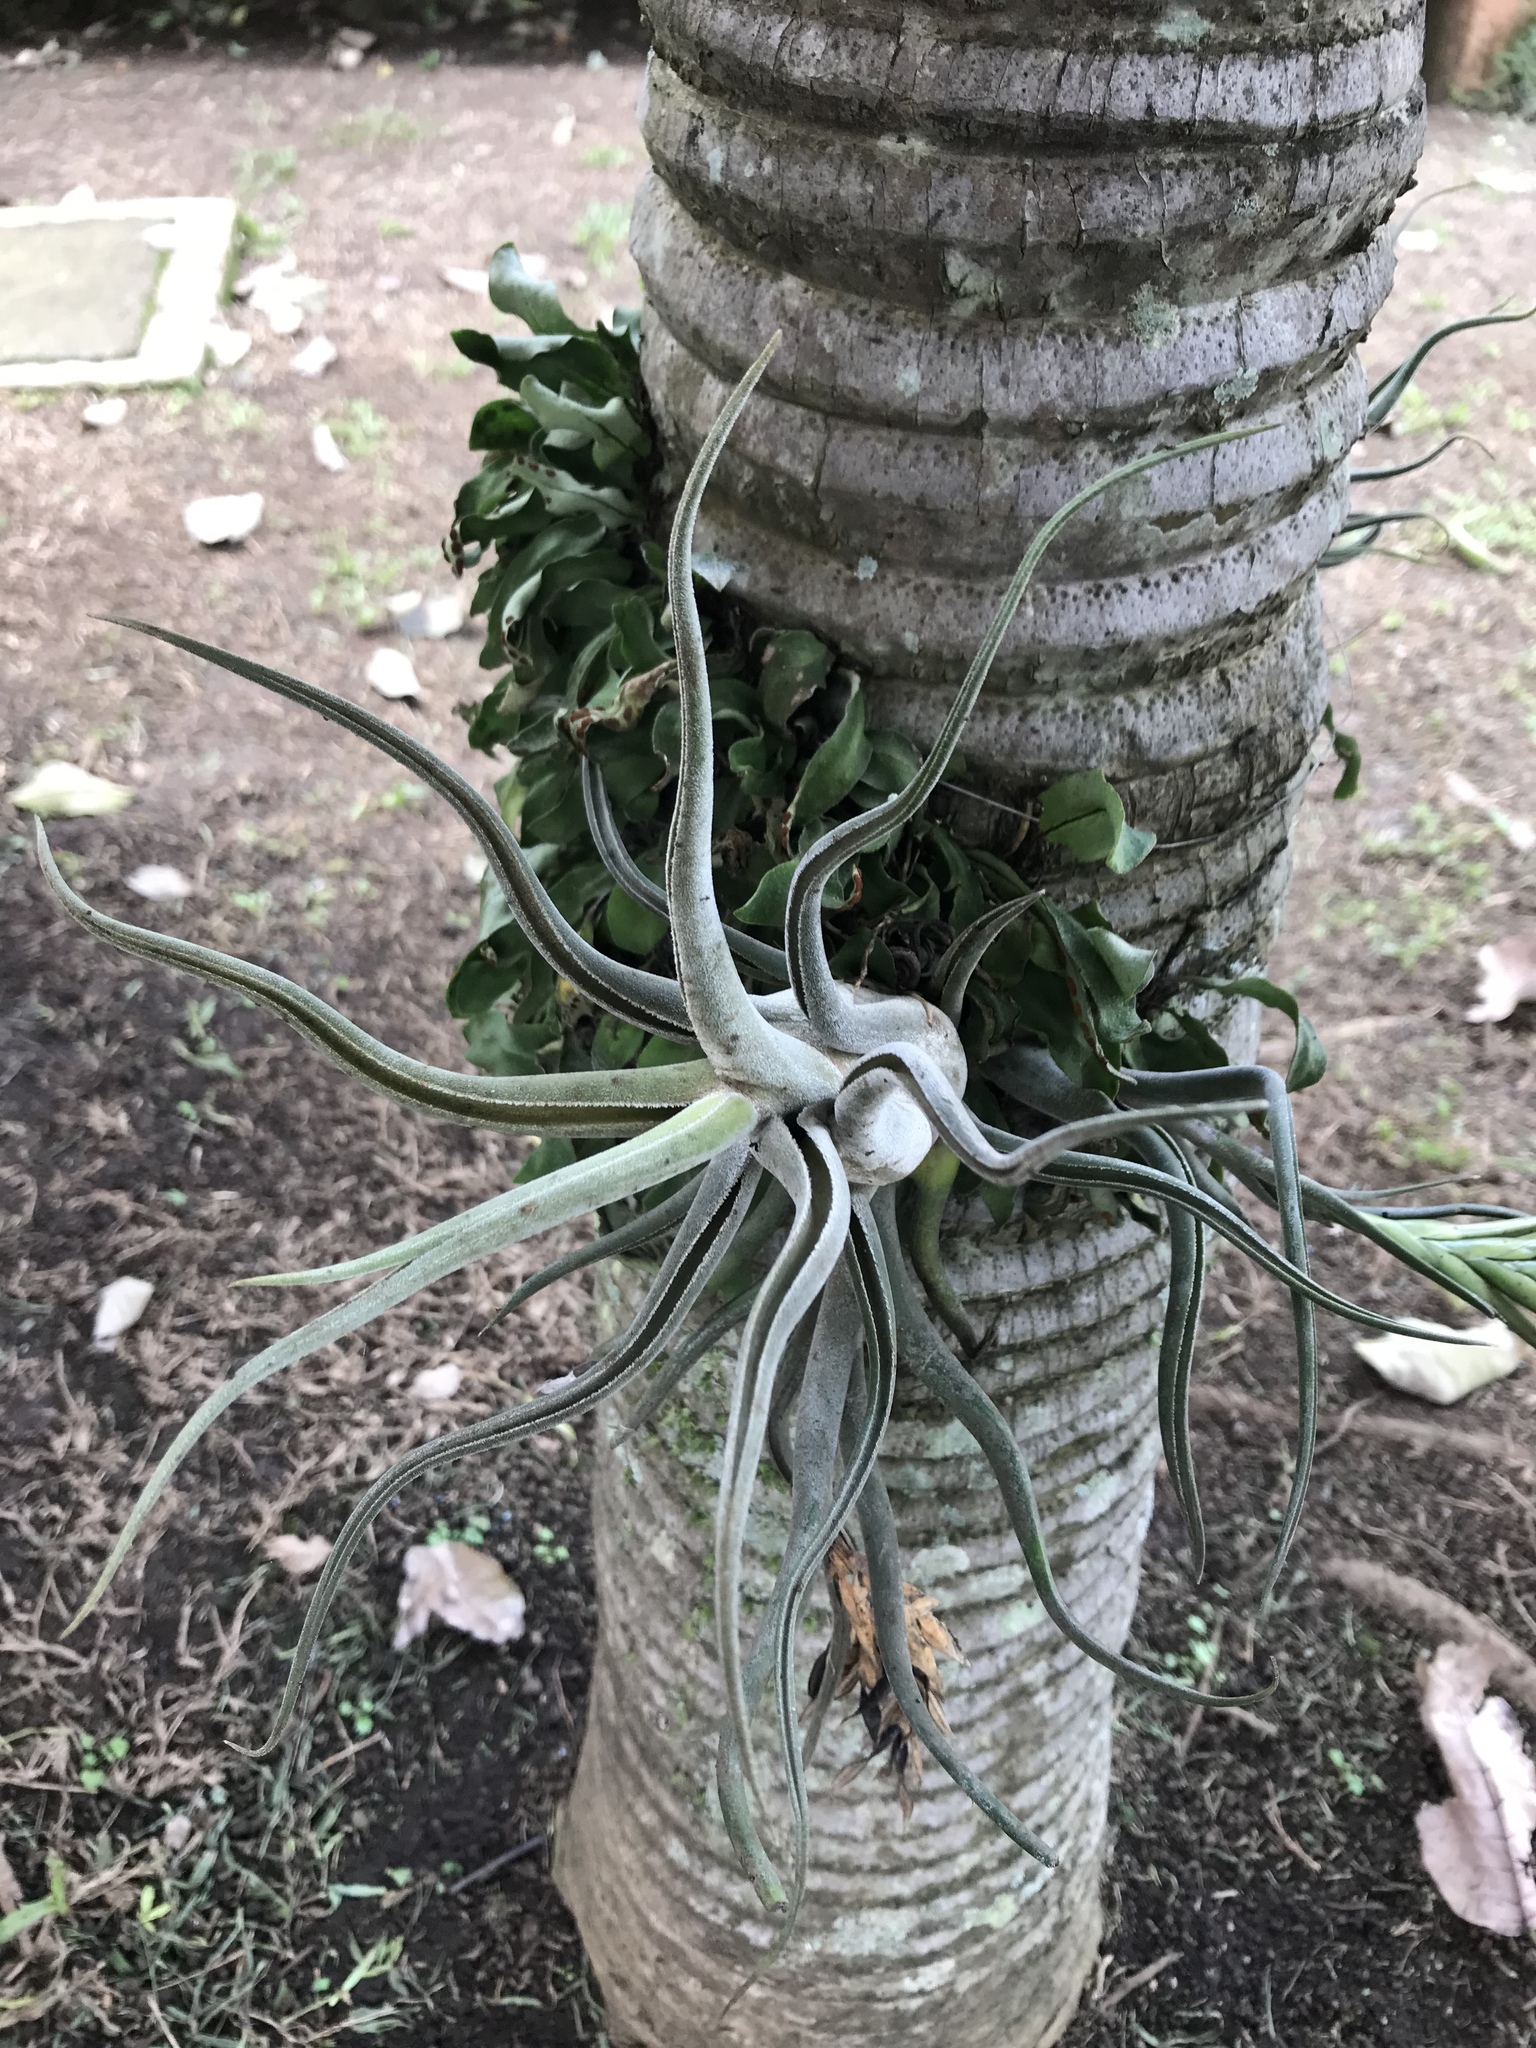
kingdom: Plantae
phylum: Tracheophyta
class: Liliopsida
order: Poales
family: Bromeliaceae
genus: Tillandsia
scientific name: Tillandsia caput-medusae
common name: Octopus plant
